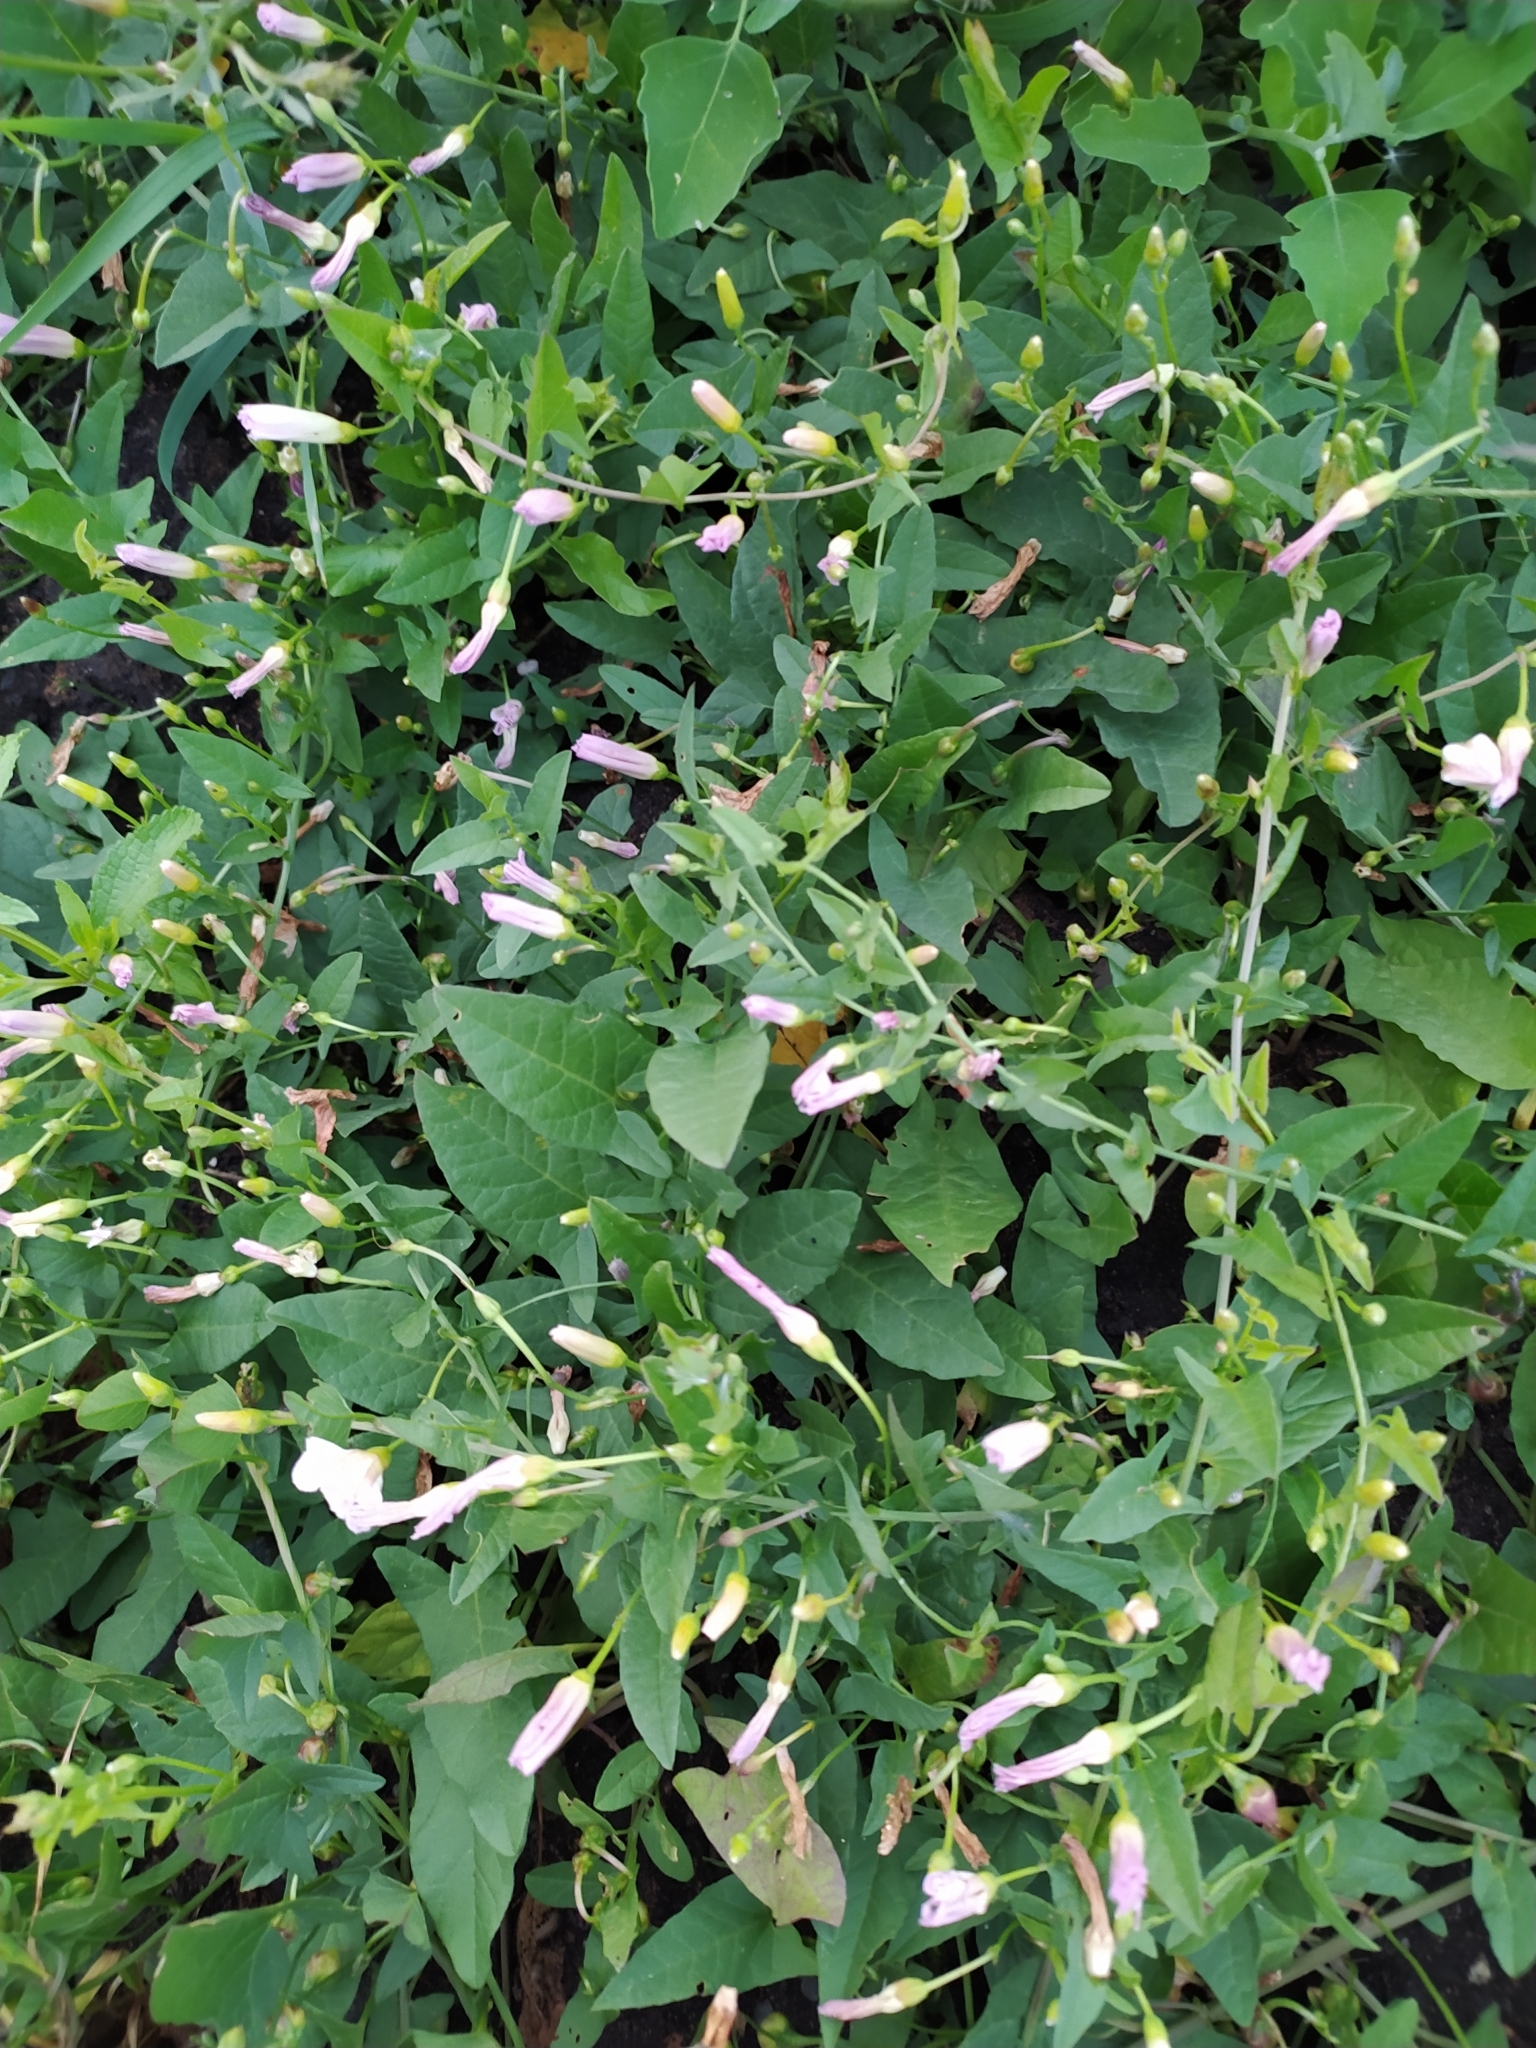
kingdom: Plantae
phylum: Tracheophyta
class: Magnoliopsida
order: Solanales
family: Convolvulaceae
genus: Convolvulus
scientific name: Convolvulus arvensis
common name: Field bindweed
